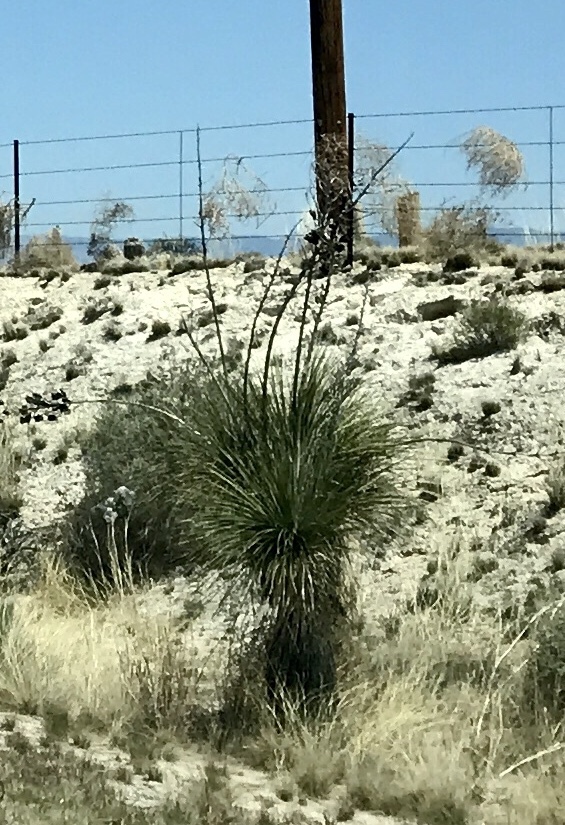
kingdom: Plantae
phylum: Tracheophyta
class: Liliopsida
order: Asparagales
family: Asparagaceae
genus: Yucca
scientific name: Yucca elata
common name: Palmella
